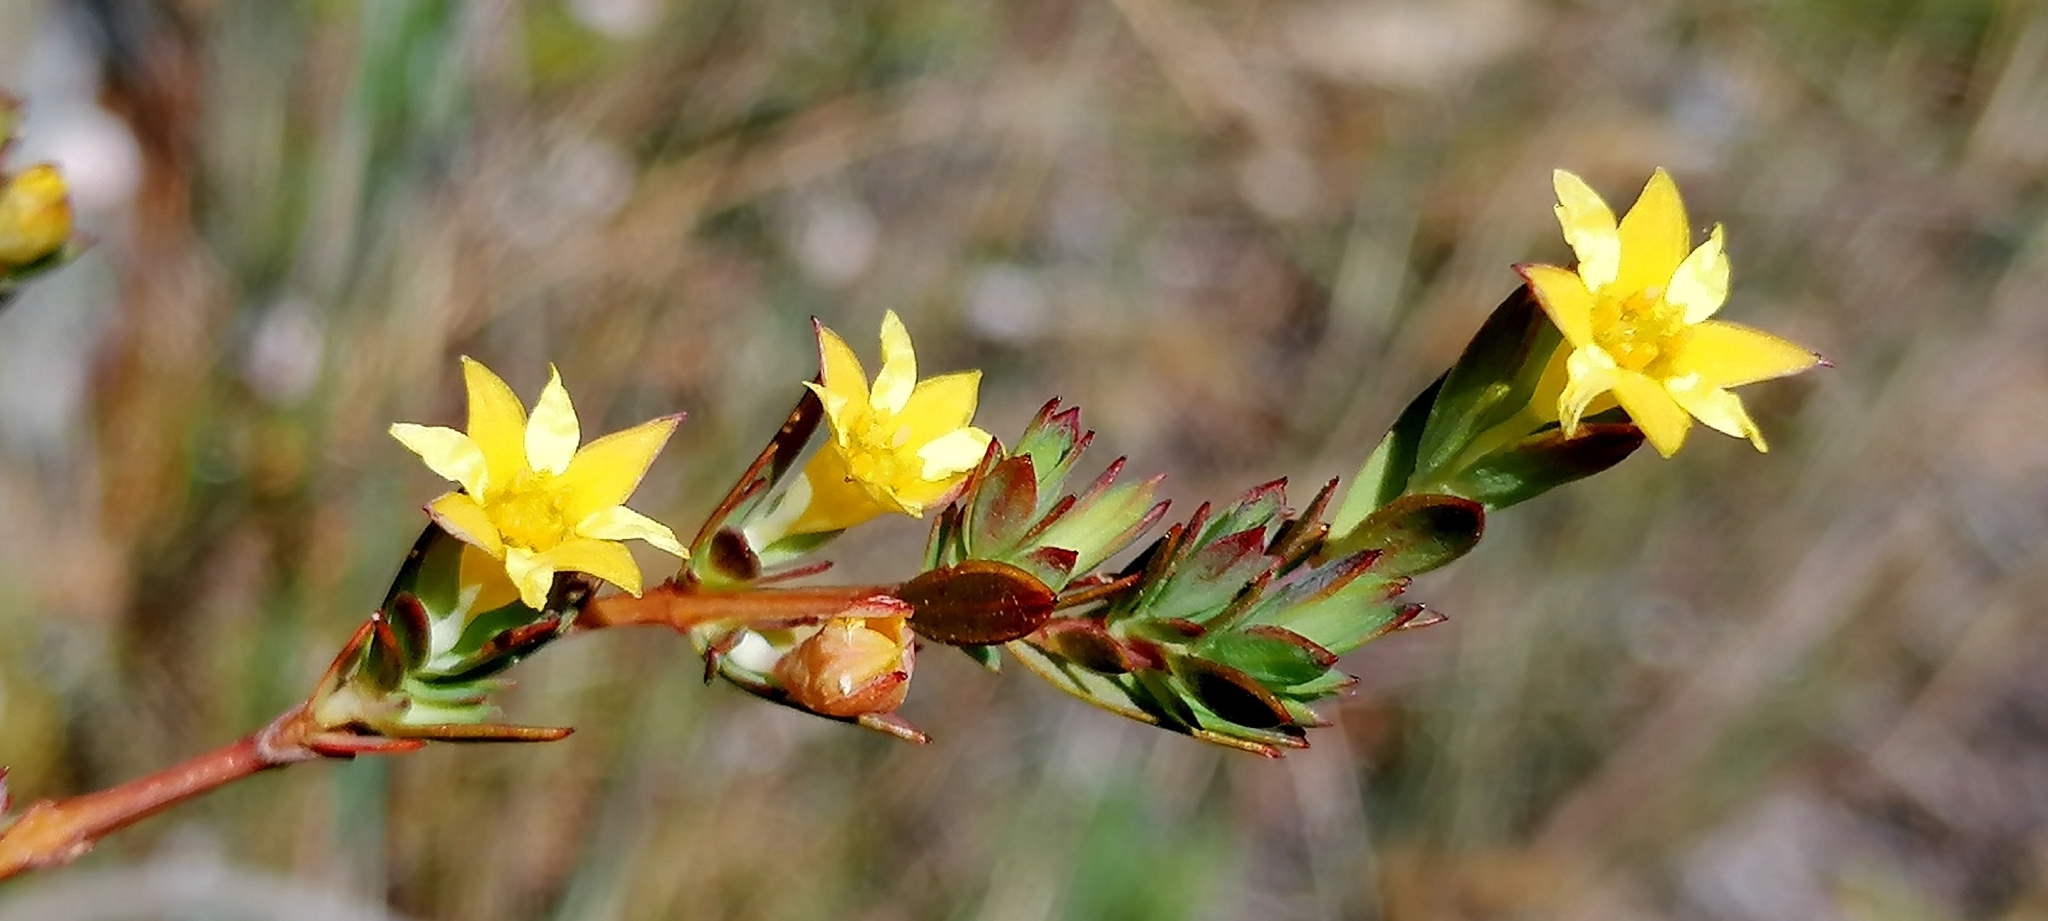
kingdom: Plantae
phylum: Tracheophyta
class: Magnoliopsida
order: Malvales
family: Thymelaeaceae
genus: Gnidia
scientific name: Gnidia juniperifolia
